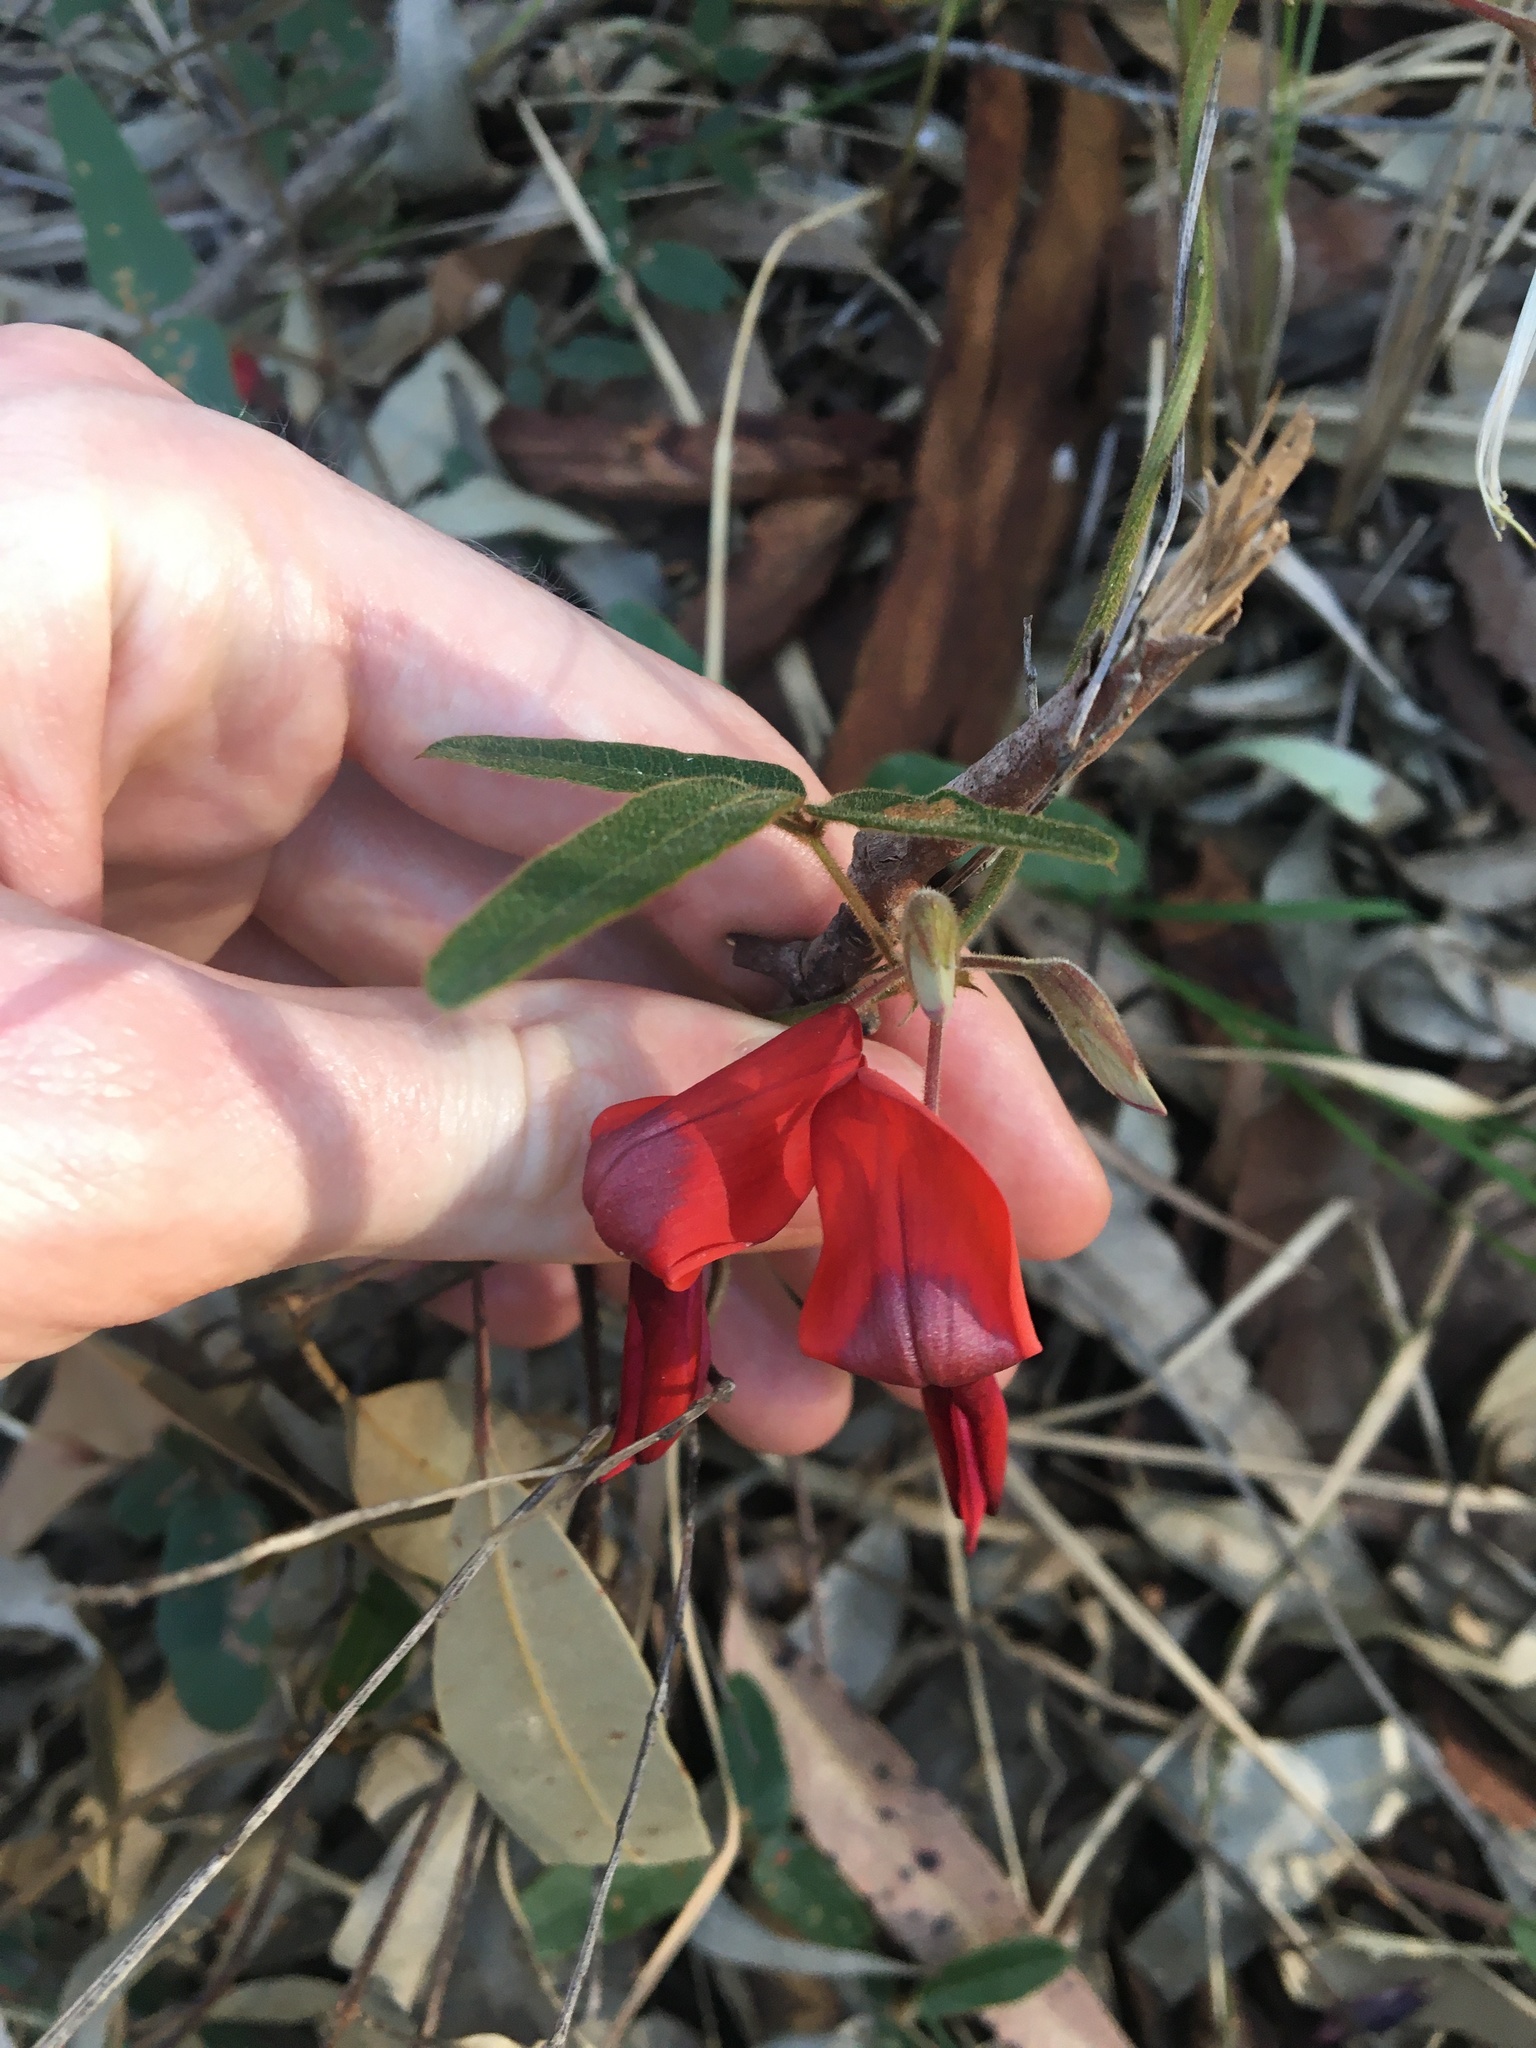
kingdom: Plantae
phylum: Tracheophyta
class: Magnoliopsida
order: Fabales
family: Fabaceae
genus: Kennedia
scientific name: Kennedia rubicunda
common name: Red kennedy-pea
